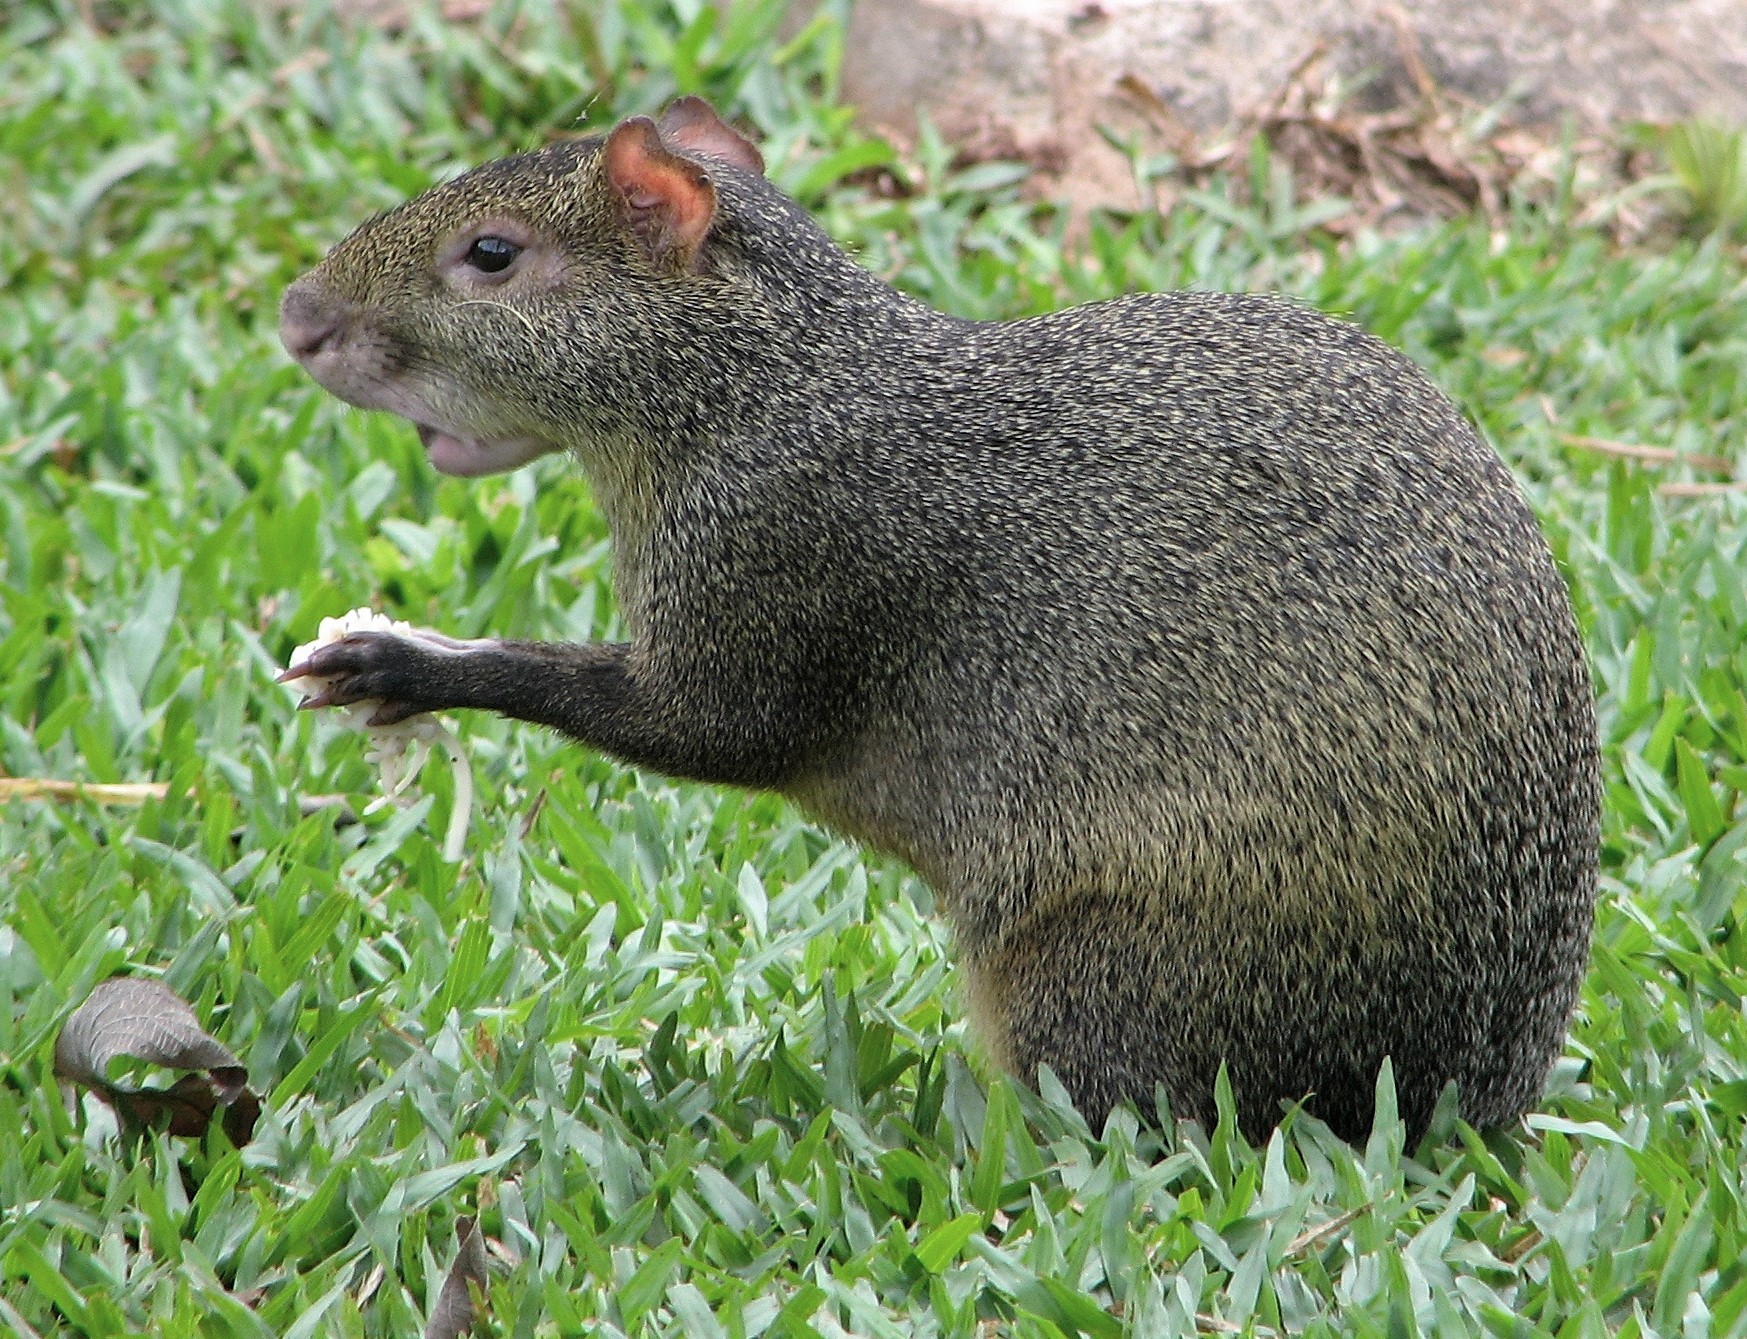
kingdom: Animalia
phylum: Chordata
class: Mammalia
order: Rodentia
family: Dasyproctidae
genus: Dasyprocta
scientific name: Dasyprocta azarae
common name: Azara's agouti
